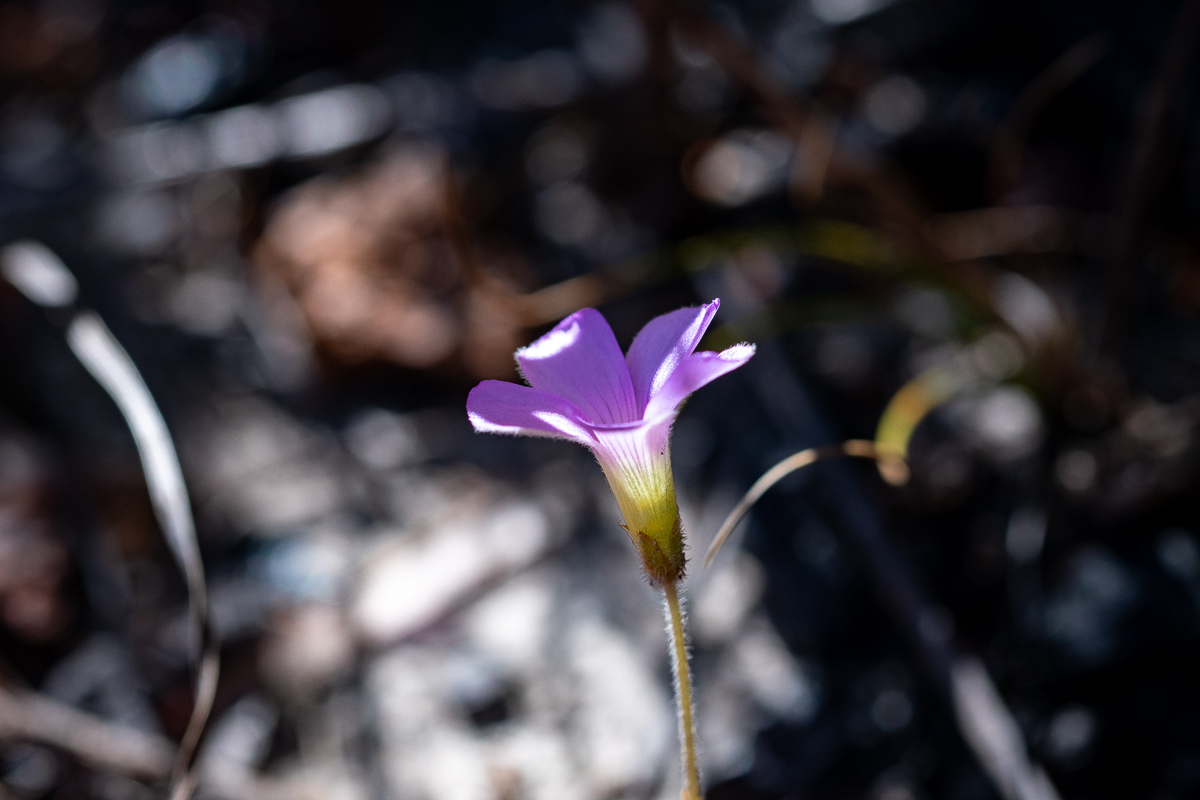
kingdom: Plantae
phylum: Tracheophyta
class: Magnoliopsida
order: Oxalidales
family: Oxalidaceae
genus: Oxalis
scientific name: Oxalis truncatula
